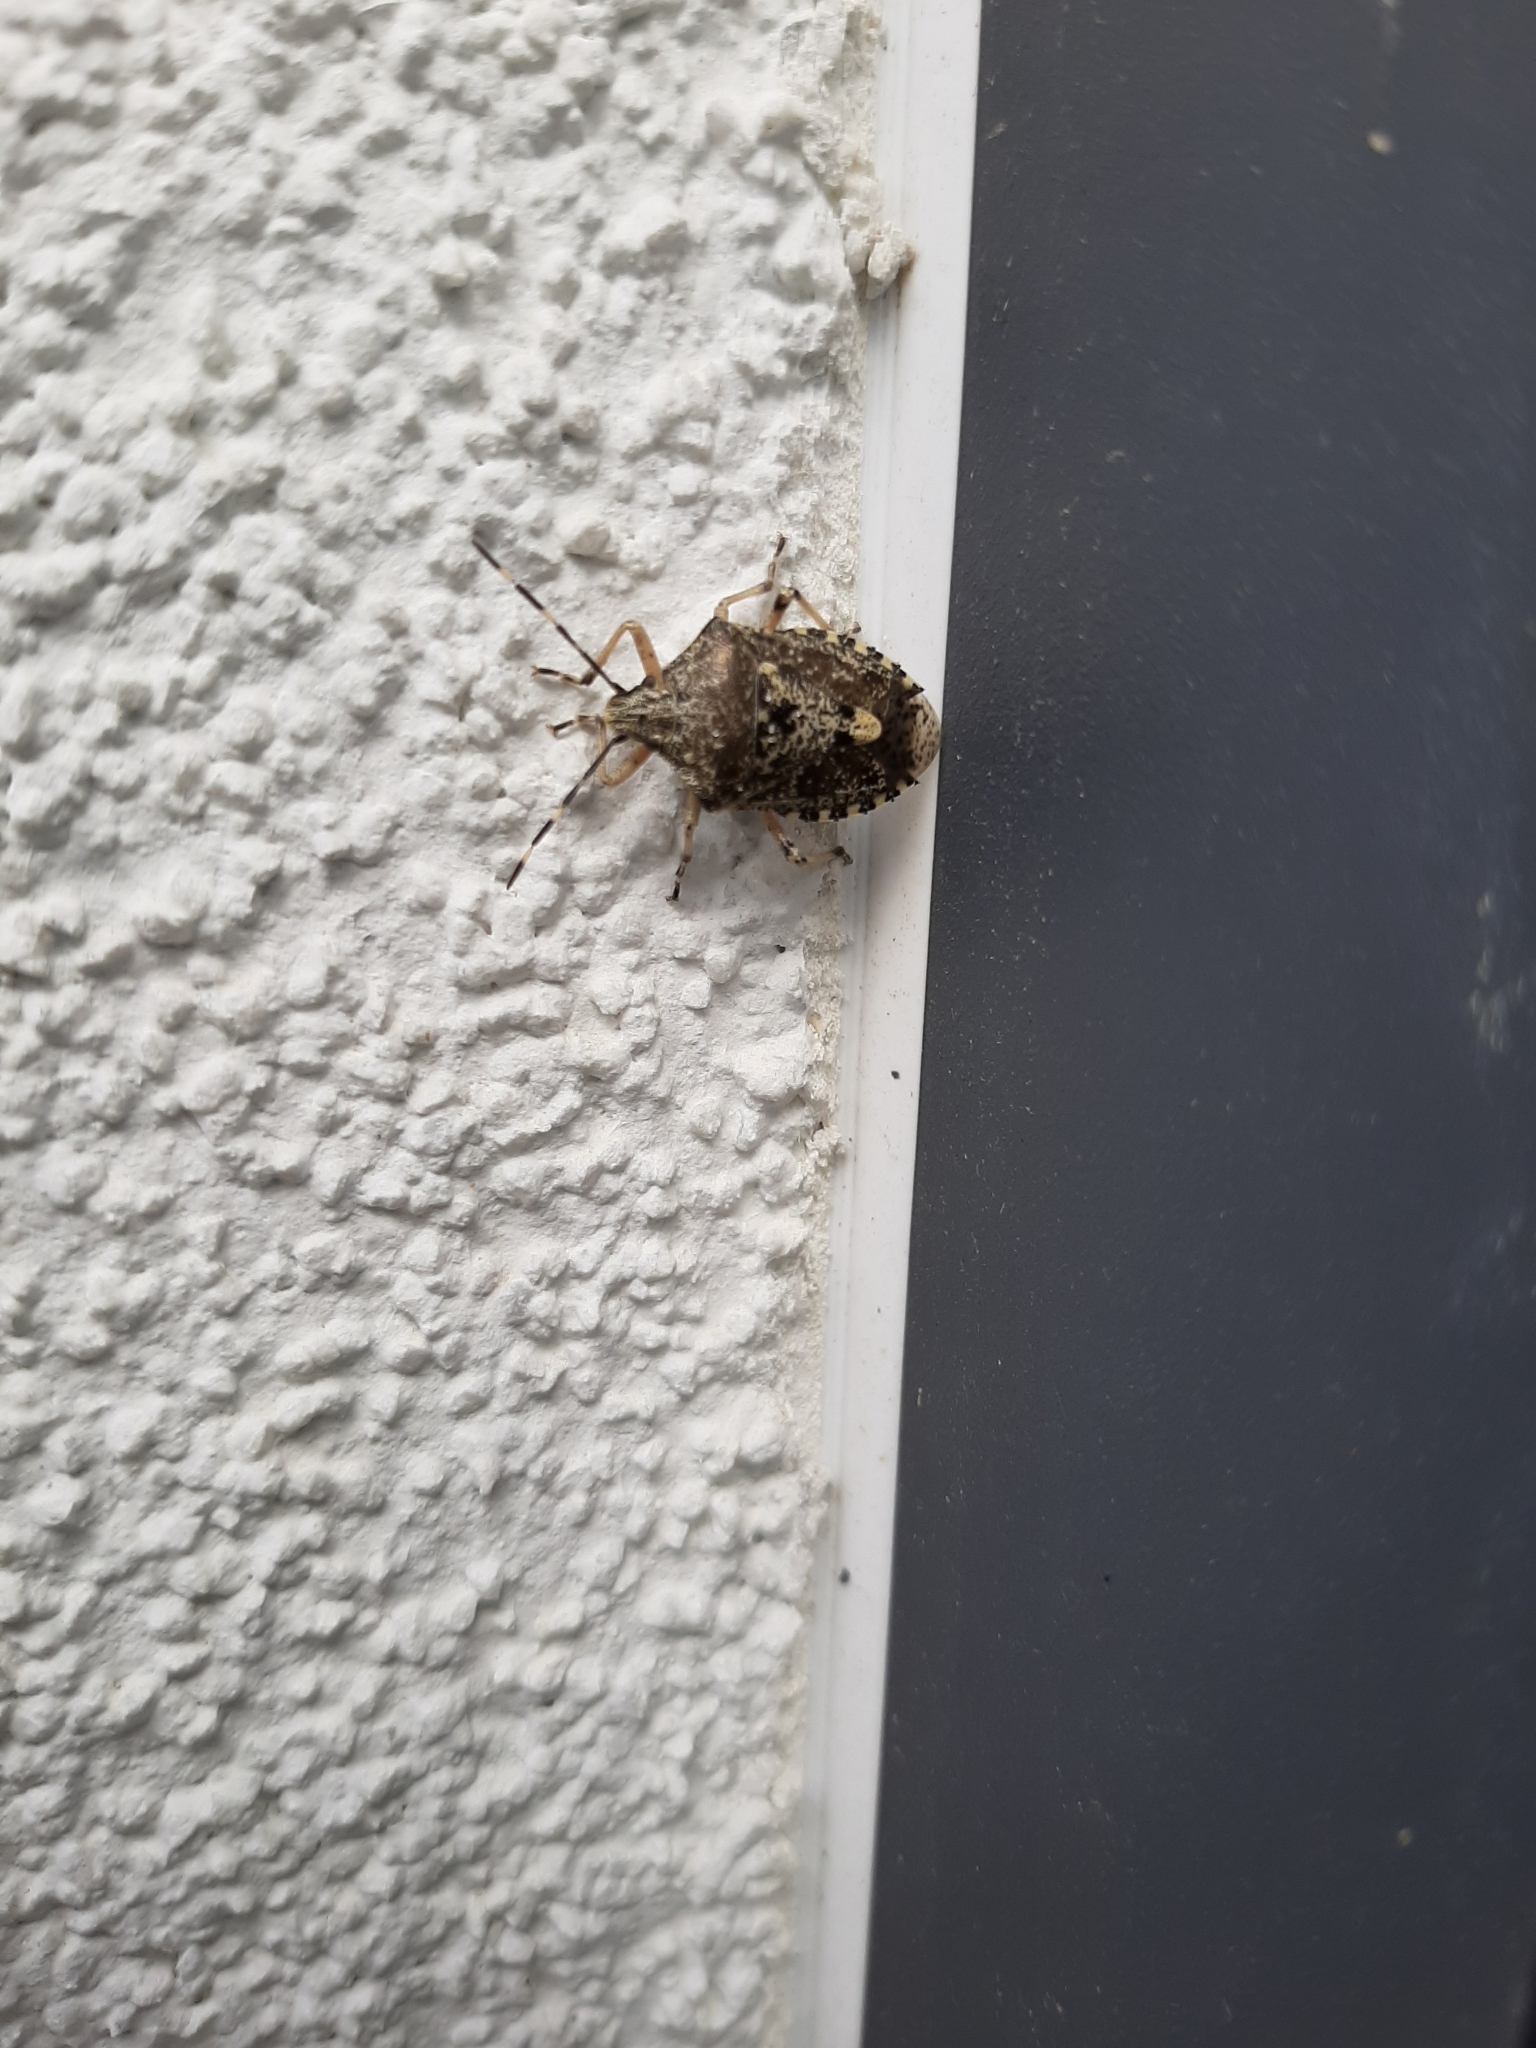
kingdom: Animalia
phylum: Arthropoda
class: Insecta
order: Hemiptera
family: Pentatomidae
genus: Rhaphigaster
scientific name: Rhaphigaster nebulosa
